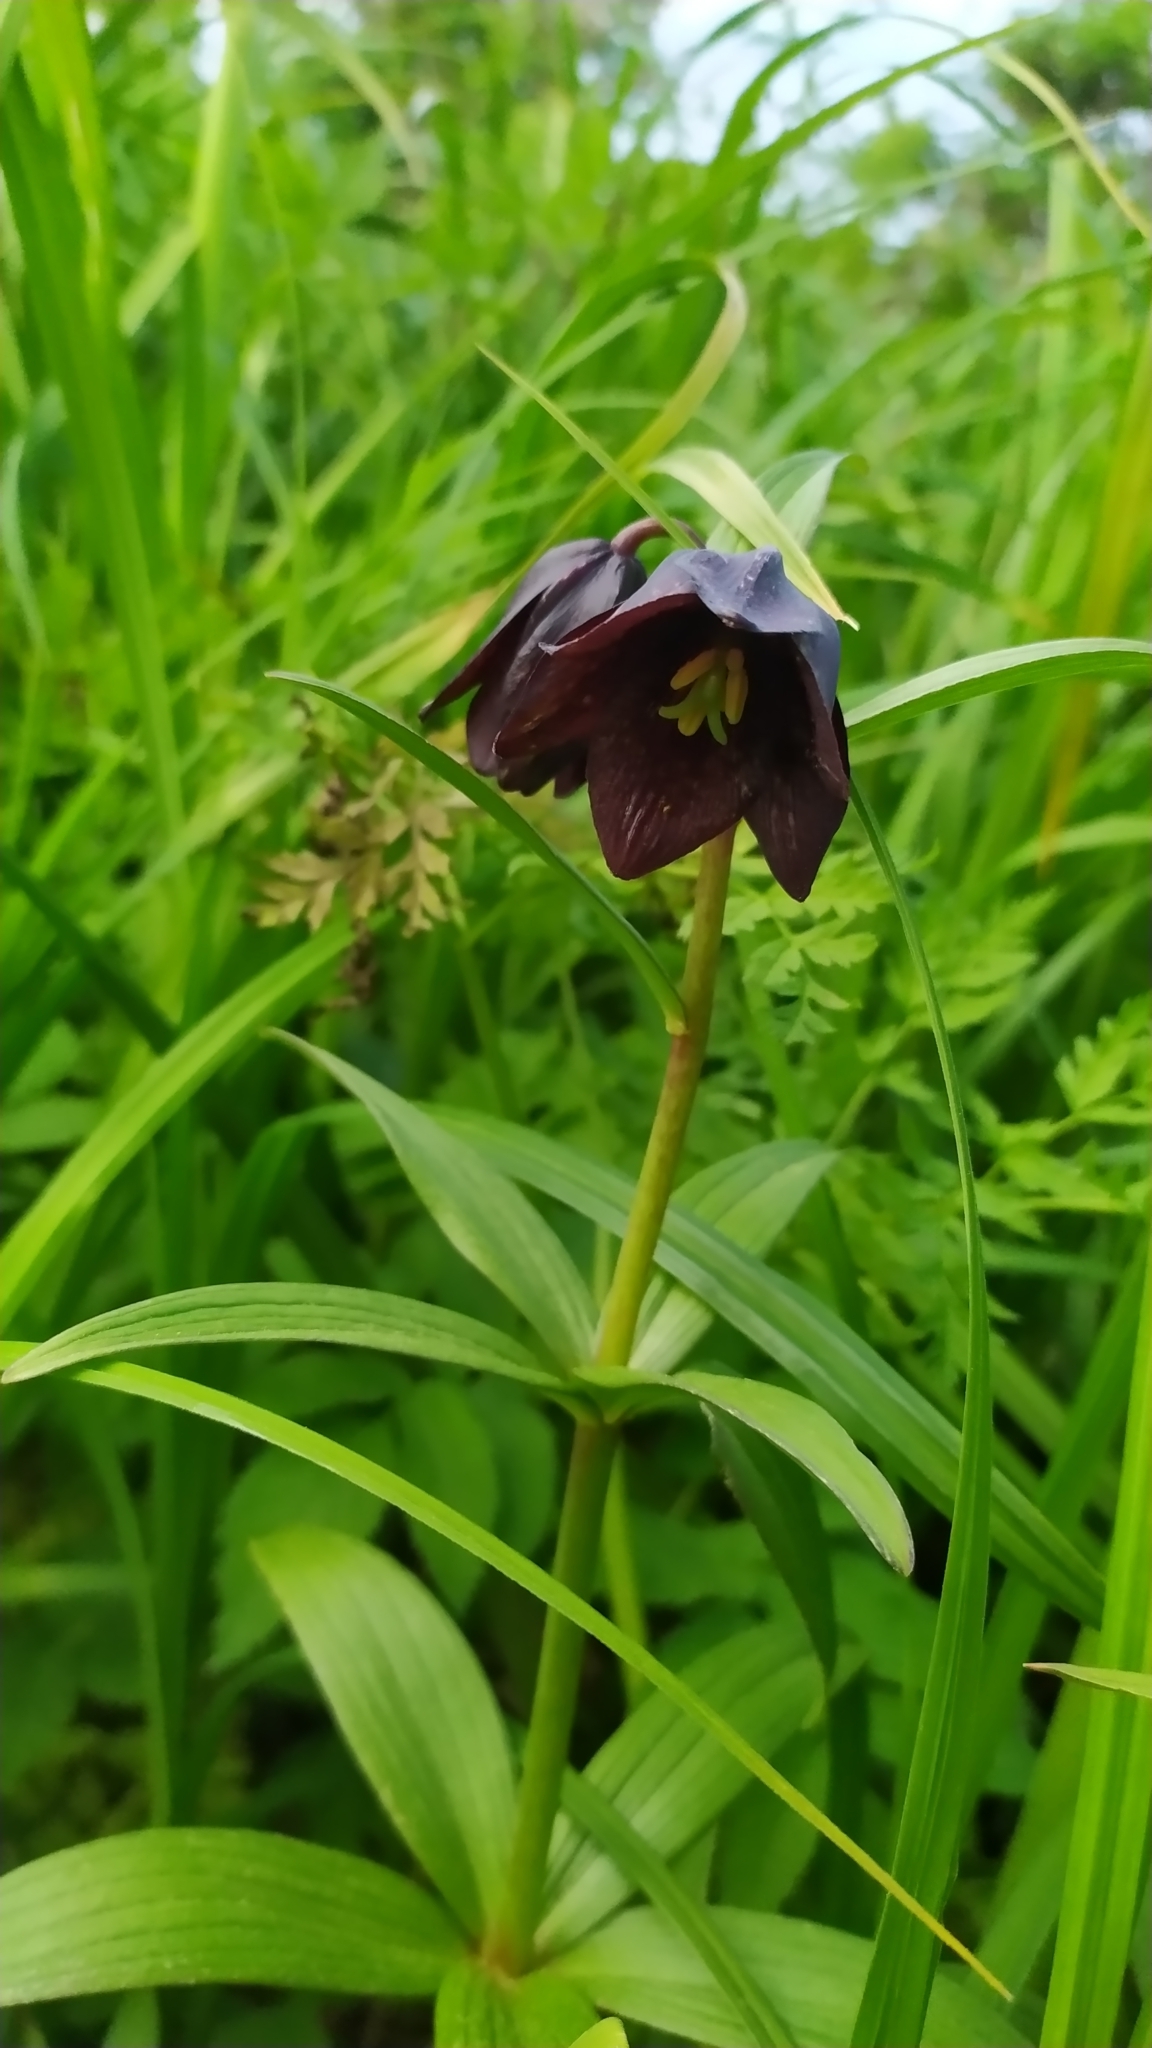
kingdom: Plantae
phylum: Tracheophyta
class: Liliopsida
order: Liliales
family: Liliaceae
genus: Fritillaria
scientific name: Fritillaria camschatcensis
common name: Kamchatka fritillary
